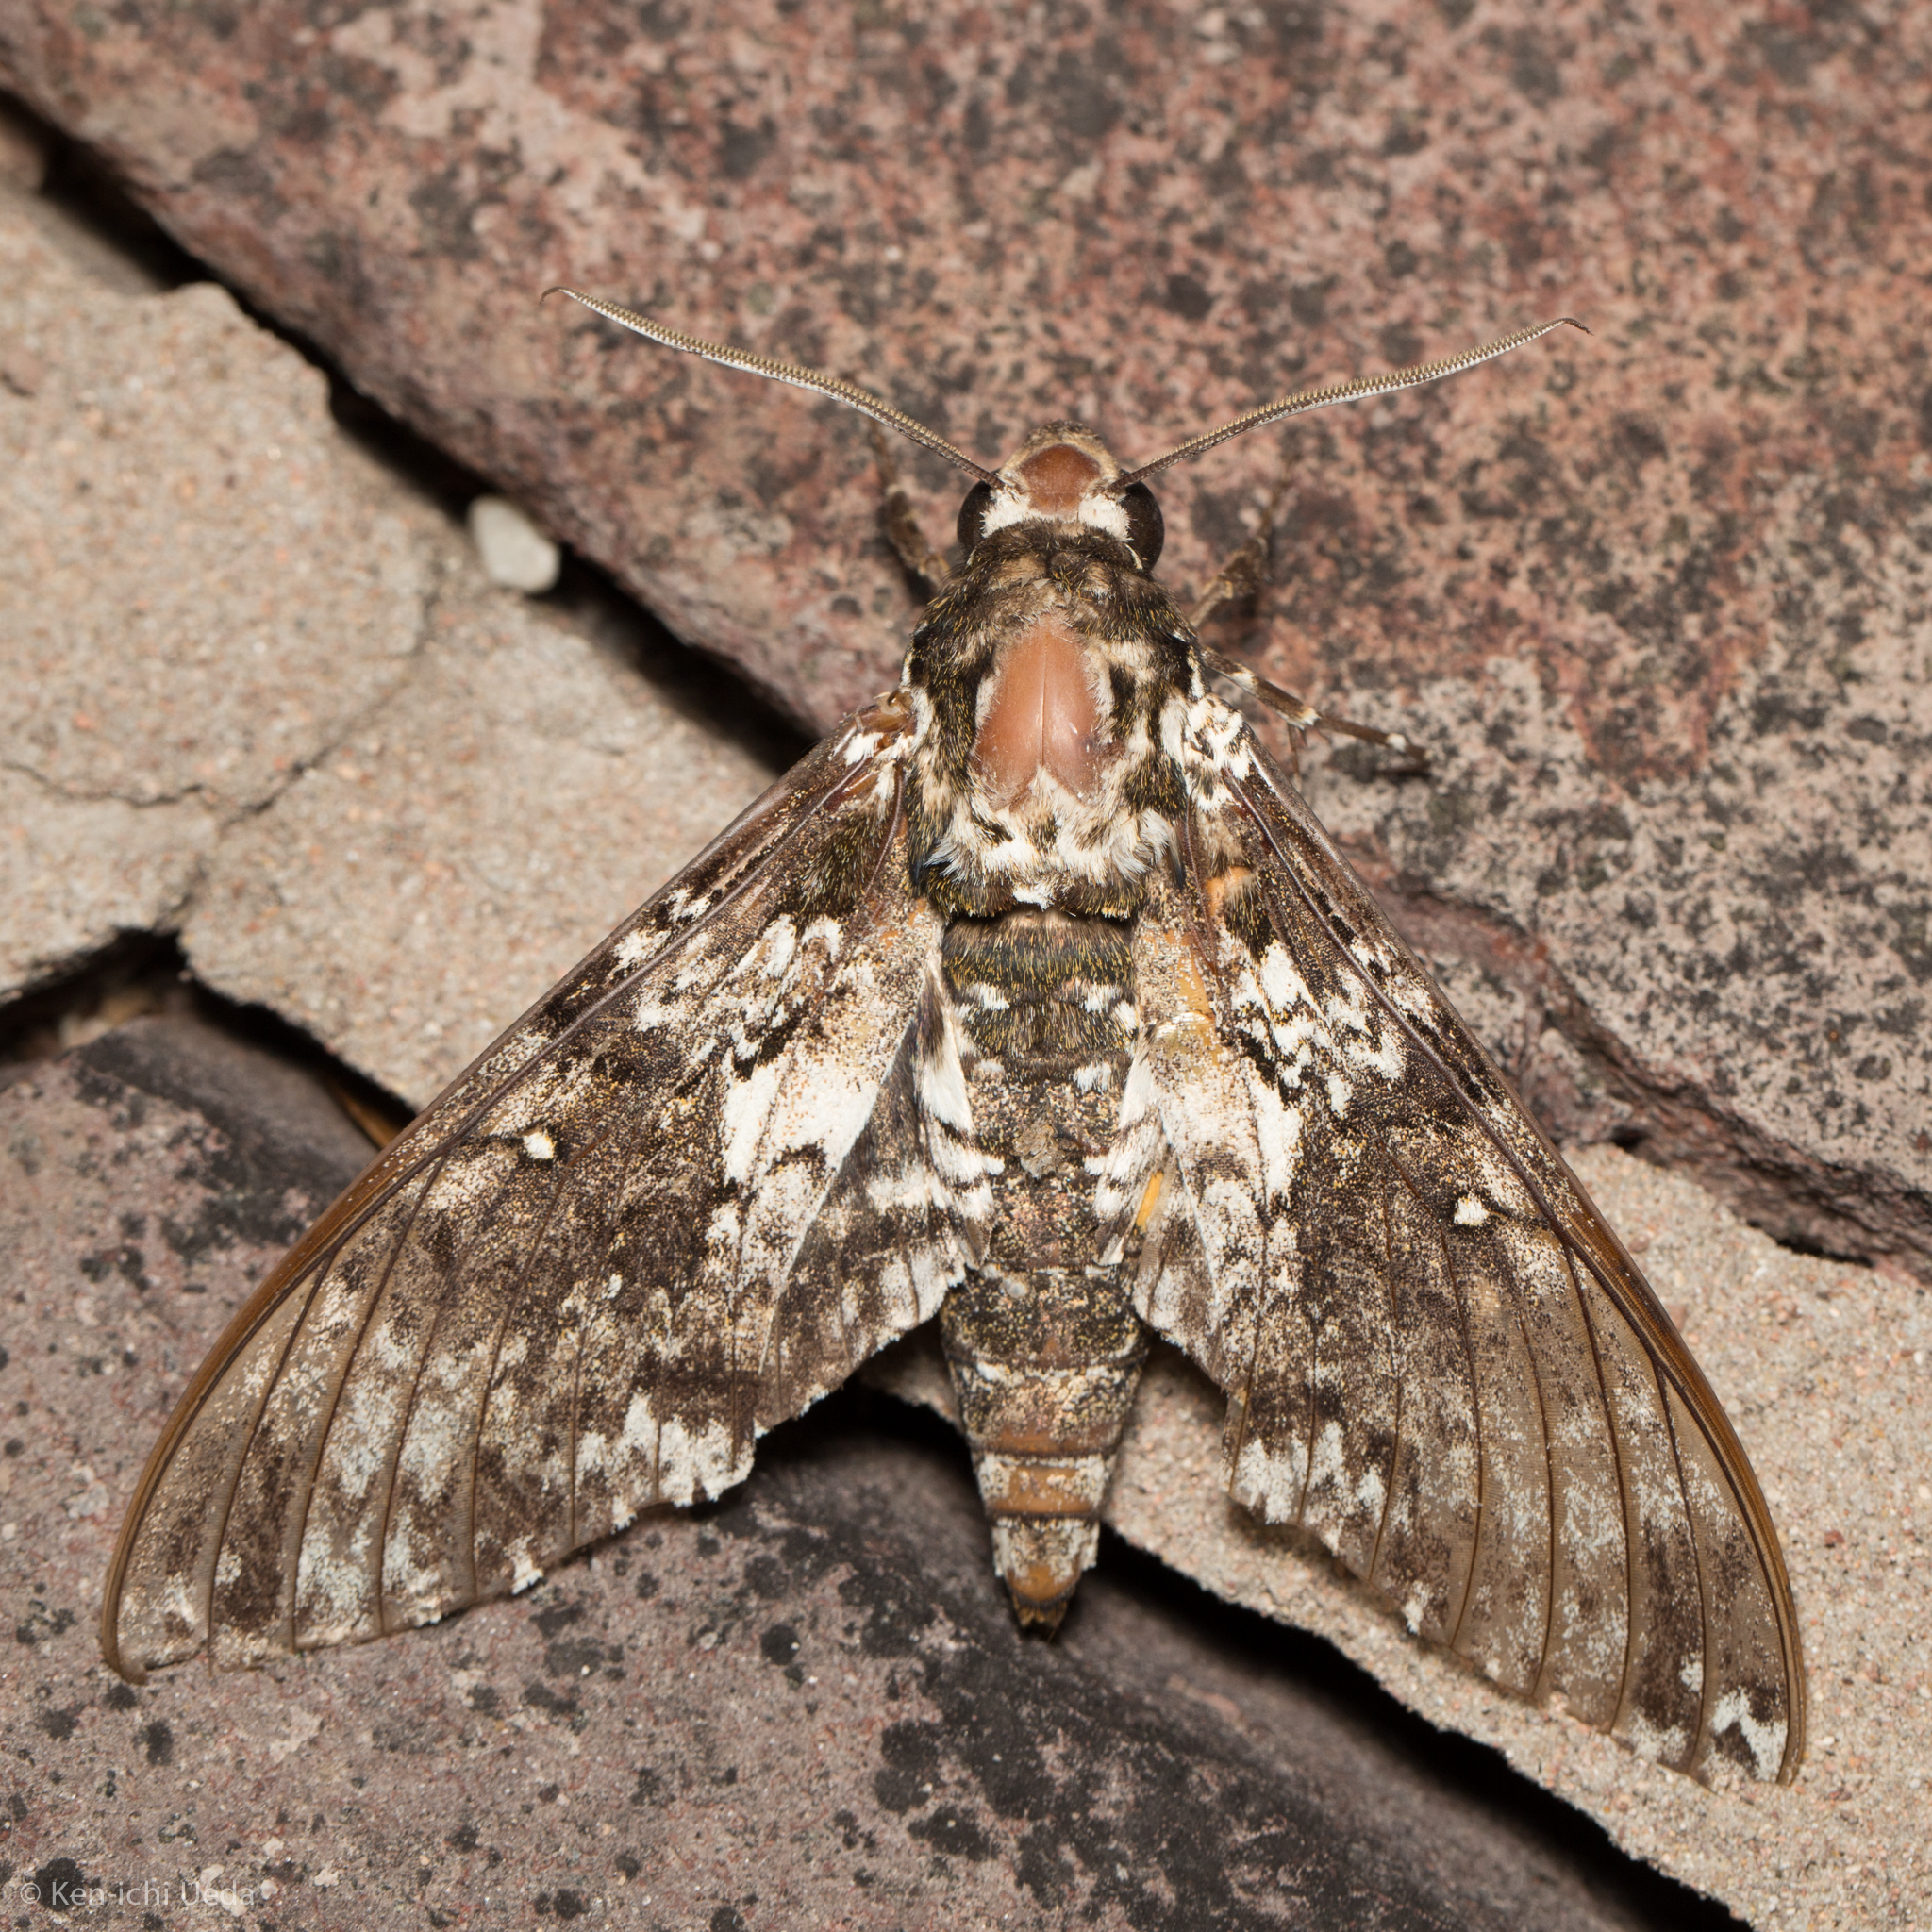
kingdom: Animalia
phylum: Arthropoda
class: Insecta
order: Lepidoptera
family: Sphingidae
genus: Manduca
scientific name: Manduca rustica
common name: Rustic sphinx
